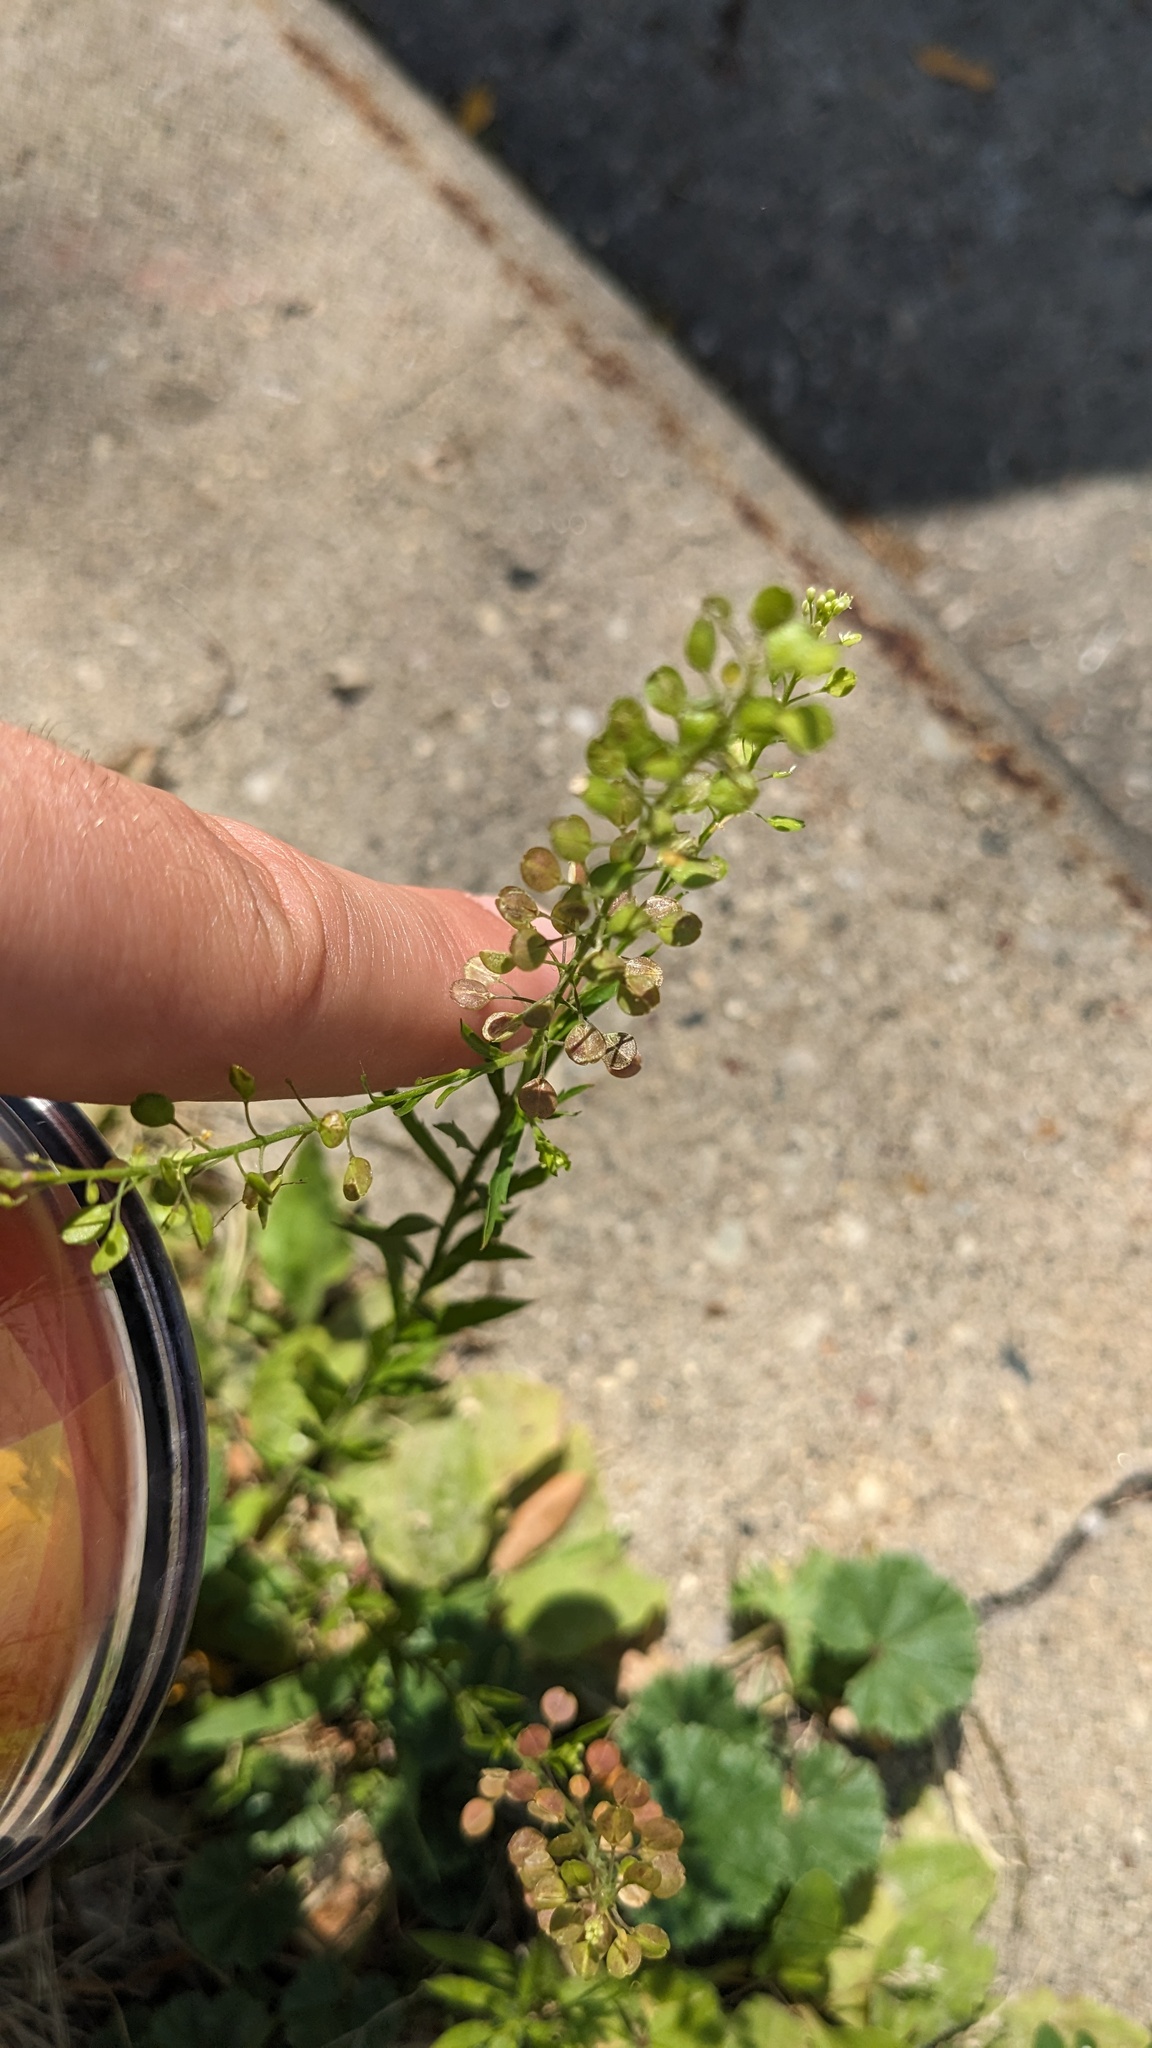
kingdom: Plantae
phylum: Tracheophyta
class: Magnoliopsida
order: Brassicales
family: Brassicaceae
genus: Lepidium
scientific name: Lepidium virginicum
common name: Least pepperwort
